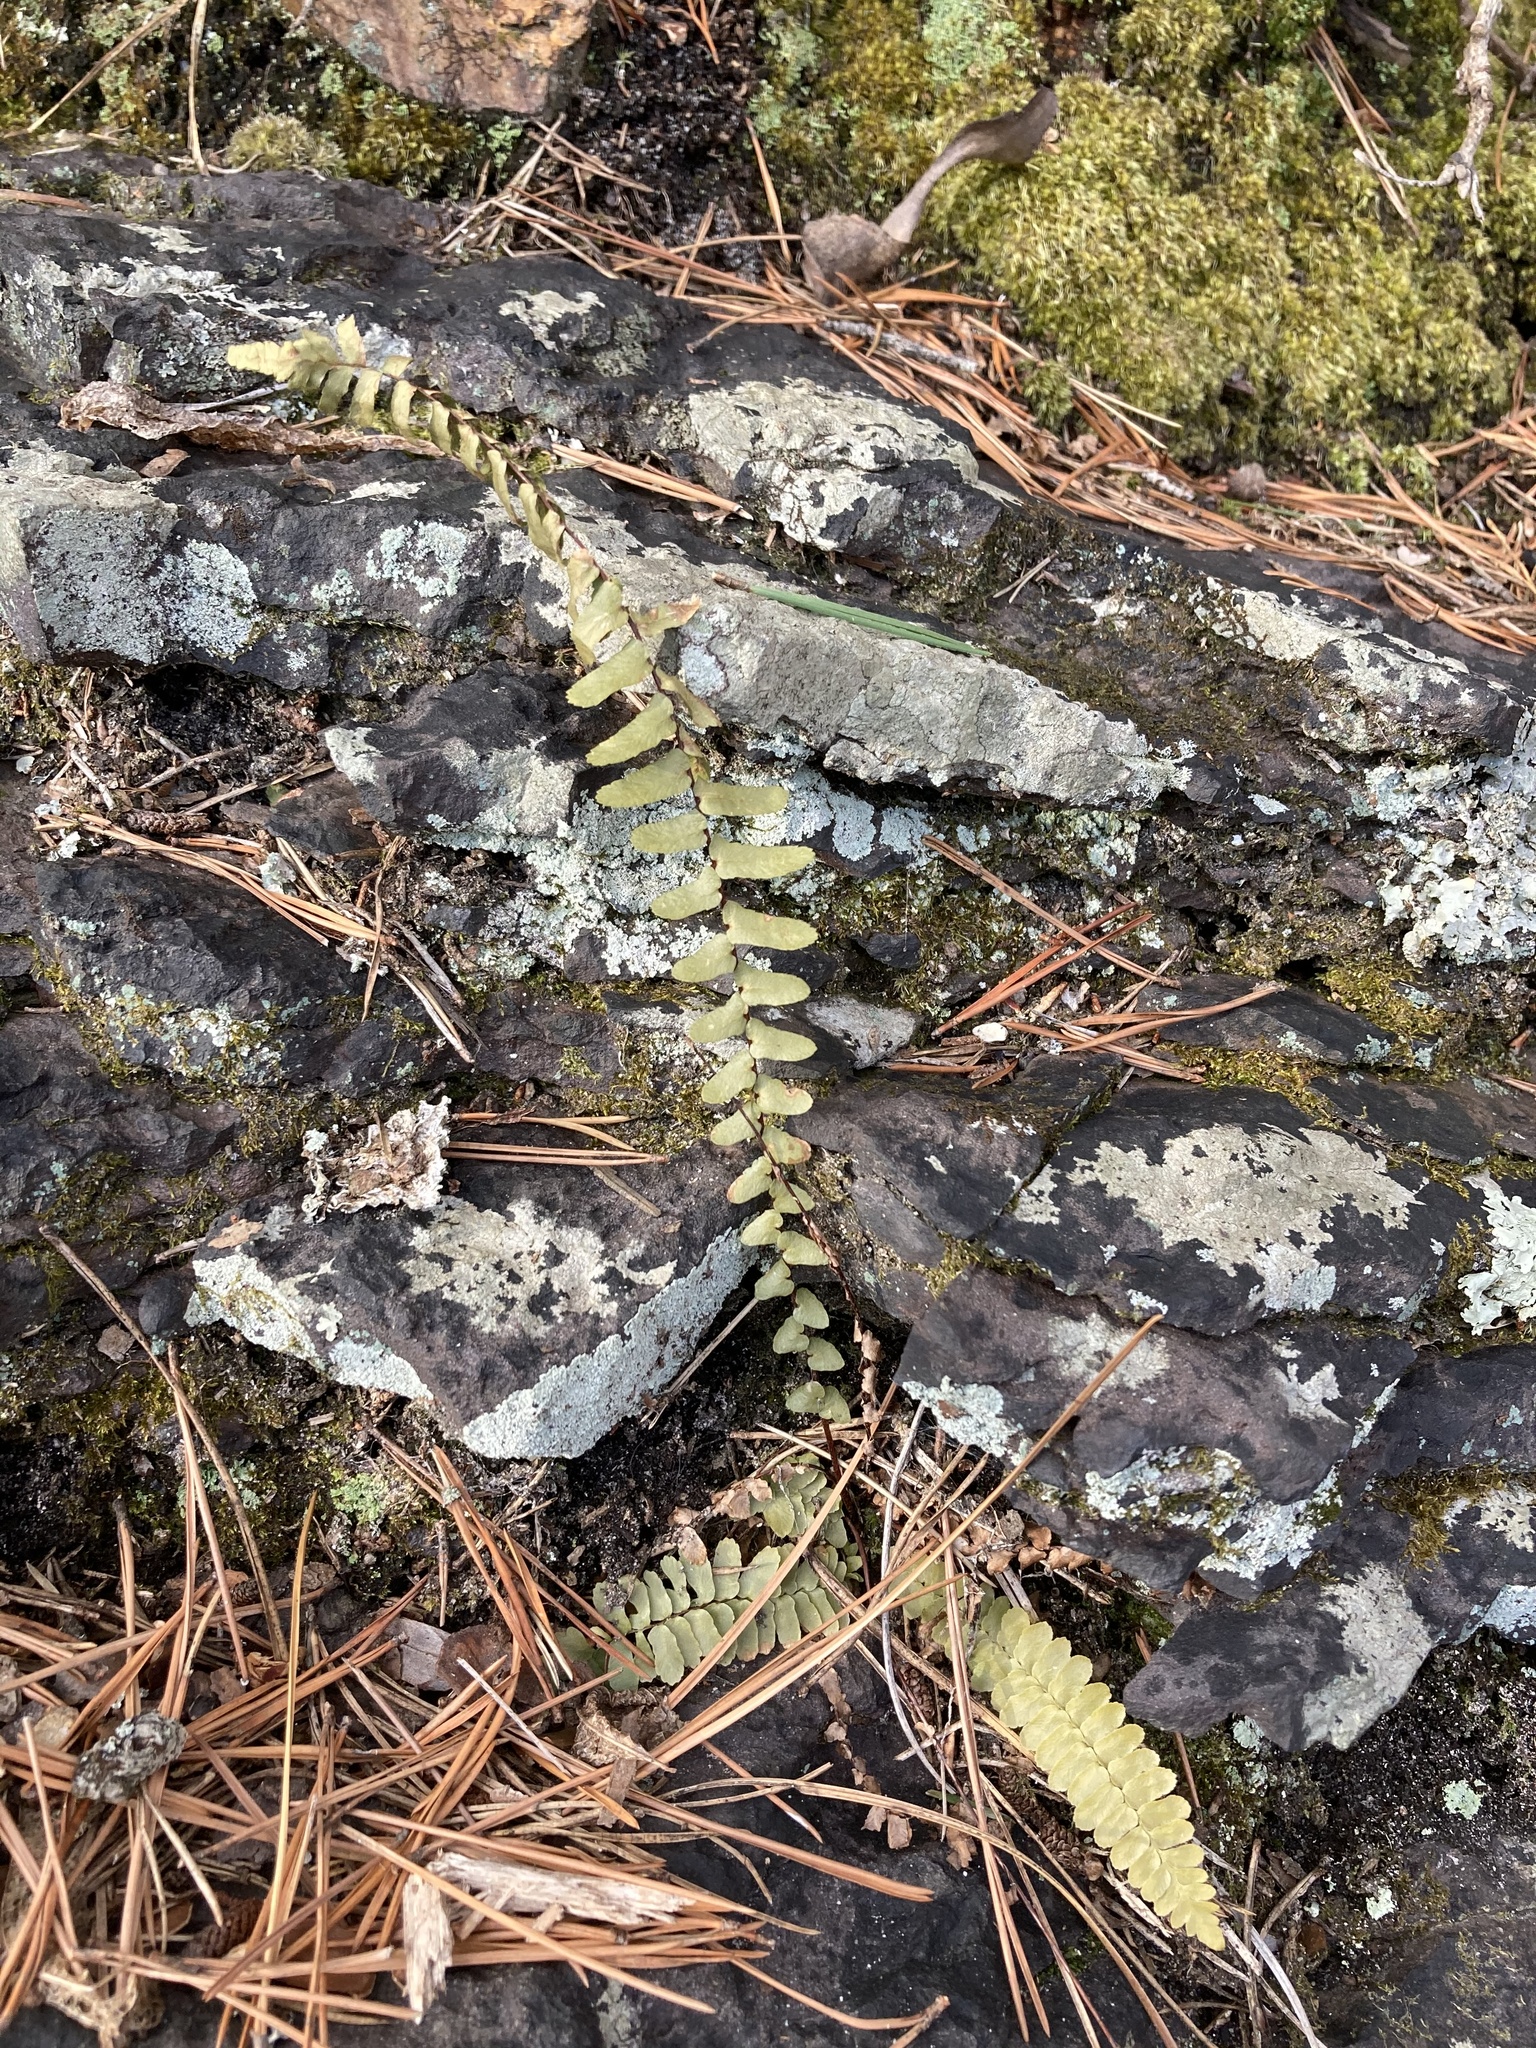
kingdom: Plantae
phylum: Tracheophyta
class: Polypodiopsida
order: Polypodiales
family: Aspleniaceae
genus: Asplenium
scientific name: Asplenium platyneuron
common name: Ebony spleenwort
